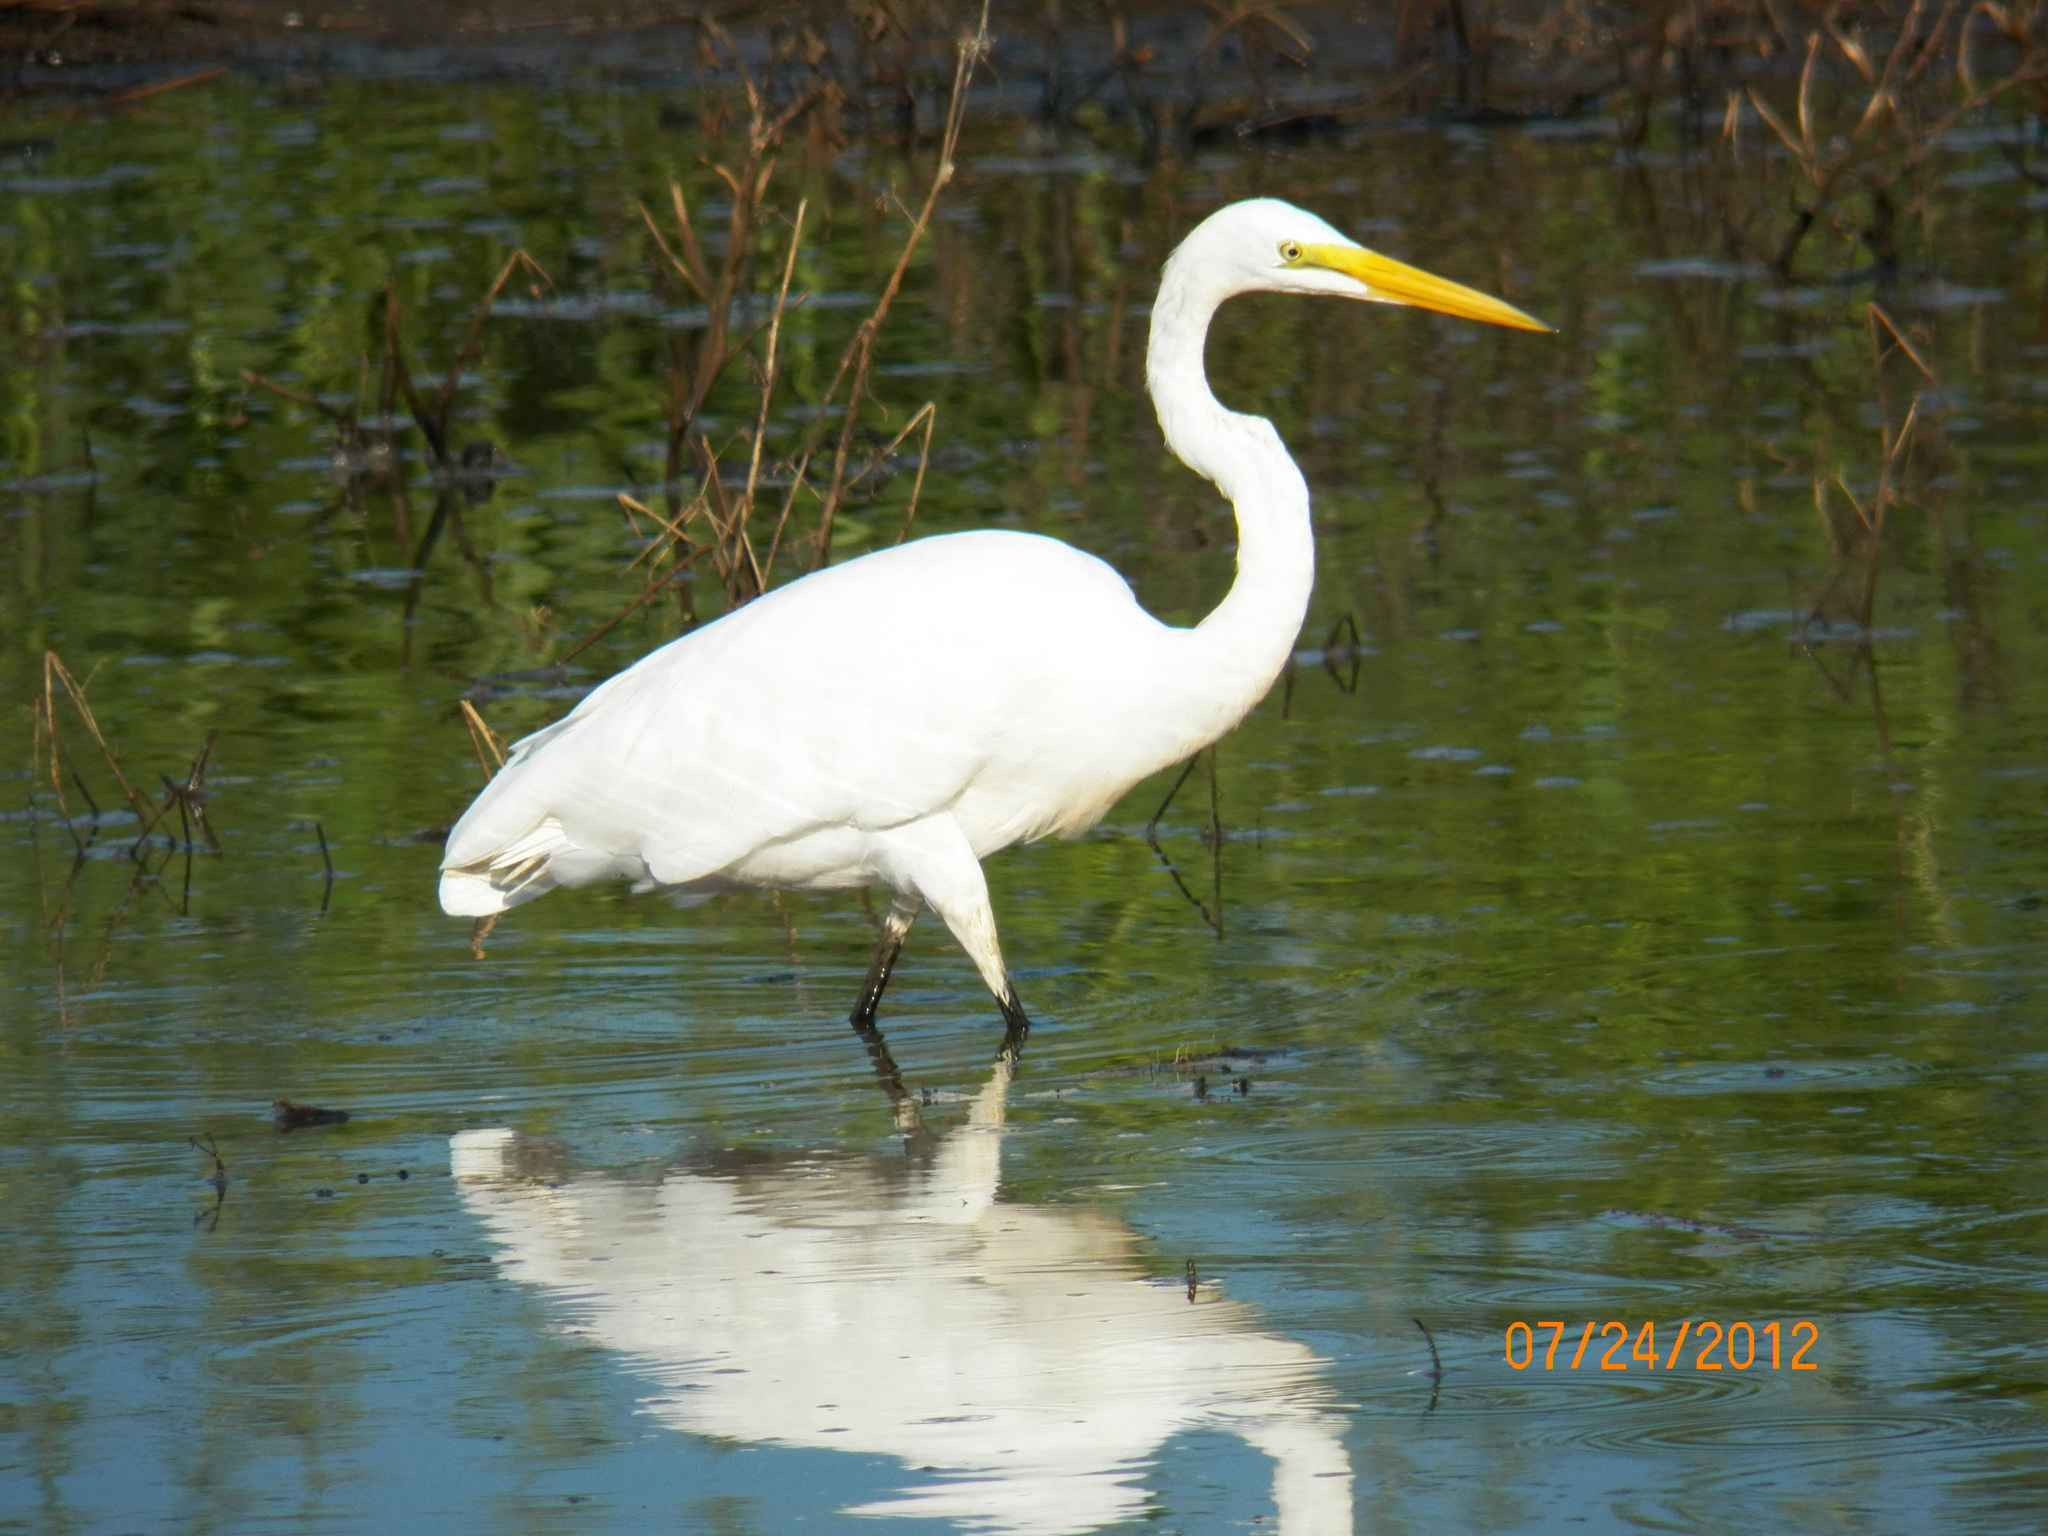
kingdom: Animalia
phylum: Chordata
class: Aves
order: Pelecaniformes
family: Ardeidae
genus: Ardea
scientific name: Ardea alba
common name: Great egret
